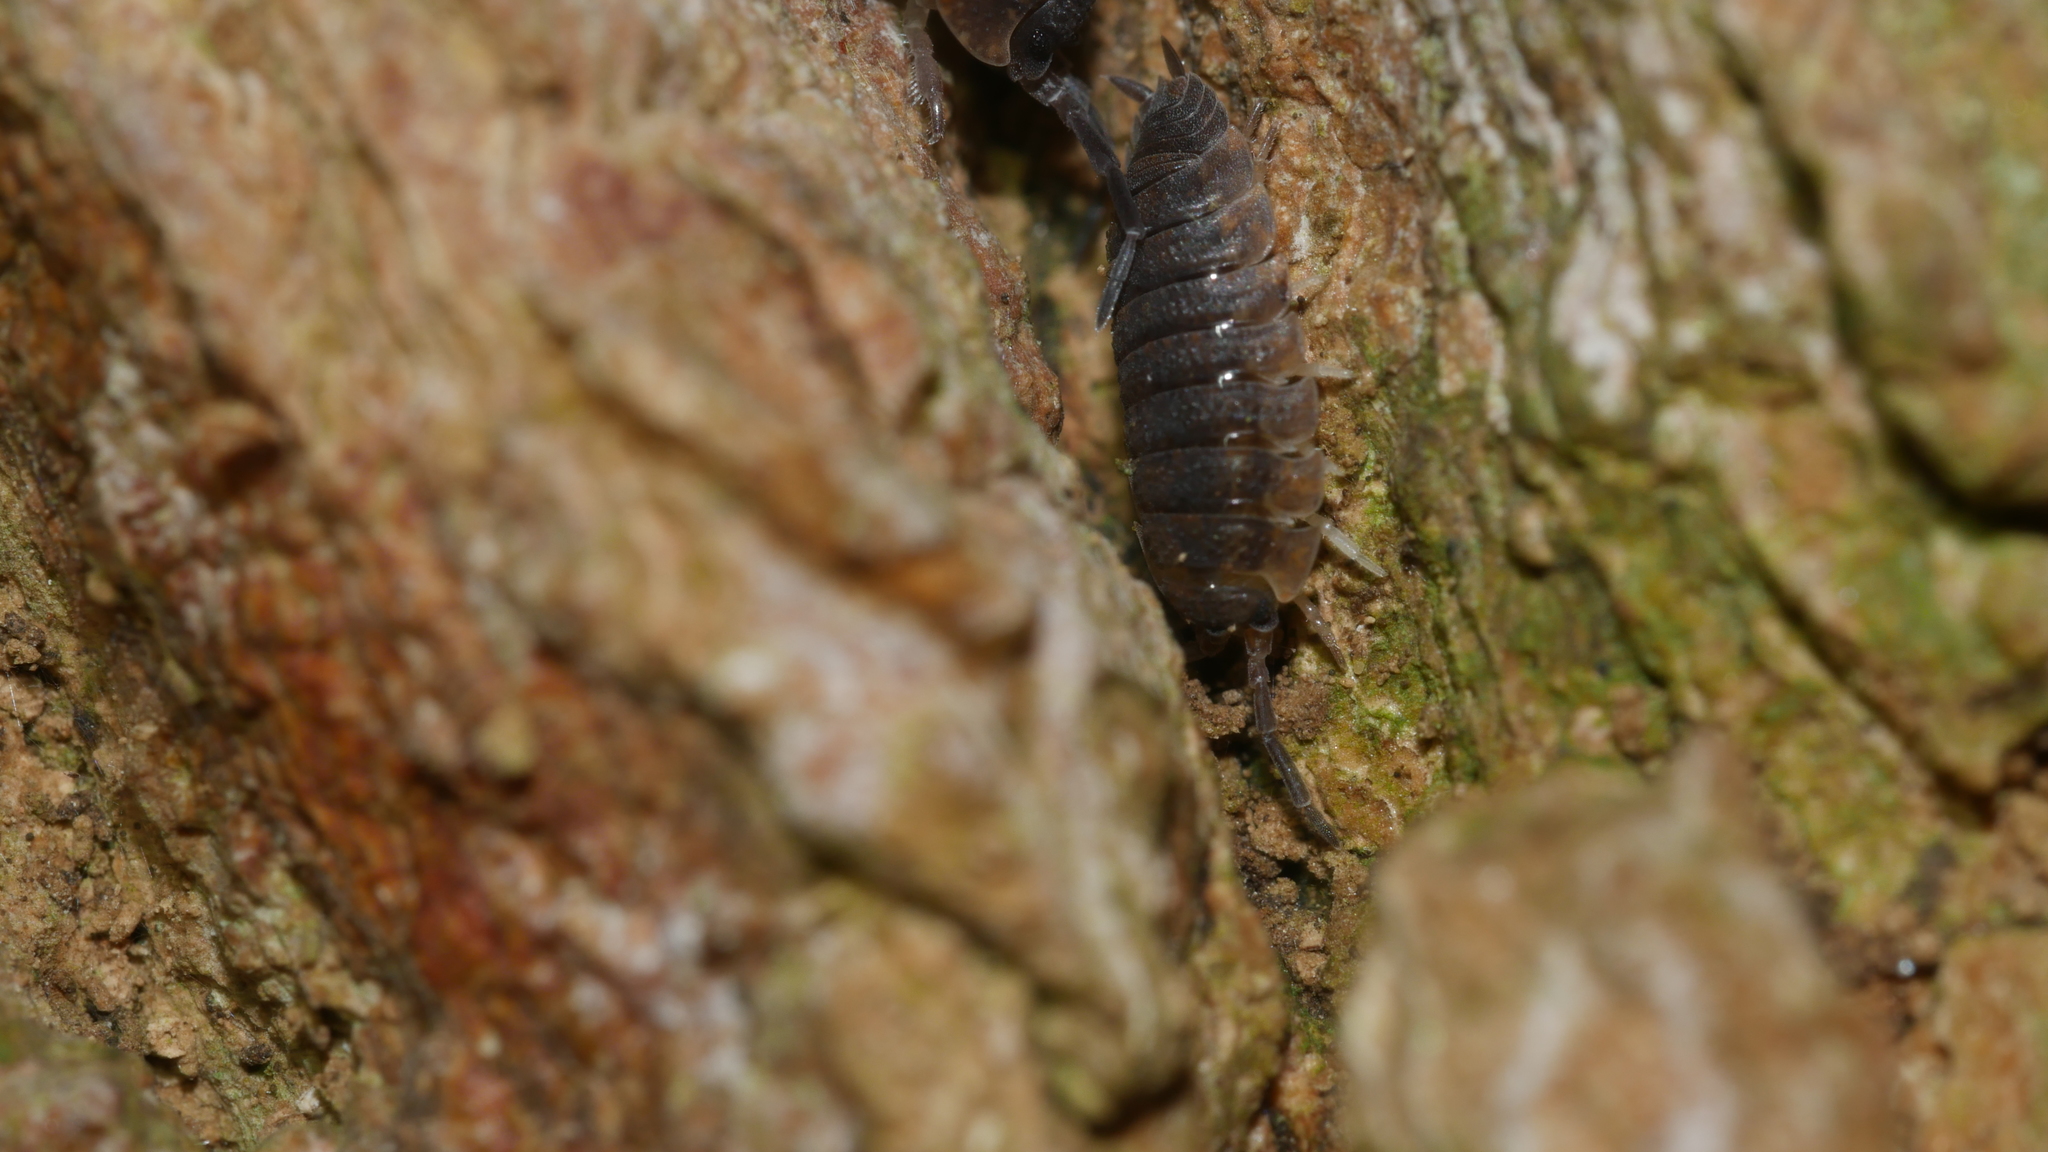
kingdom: Animalia
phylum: Arthropoda
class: Malacostraca
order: Isopoda
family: Porcellionidae
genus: Porcellio
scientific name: Porcellio scaber
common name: Common rough woodlouse
